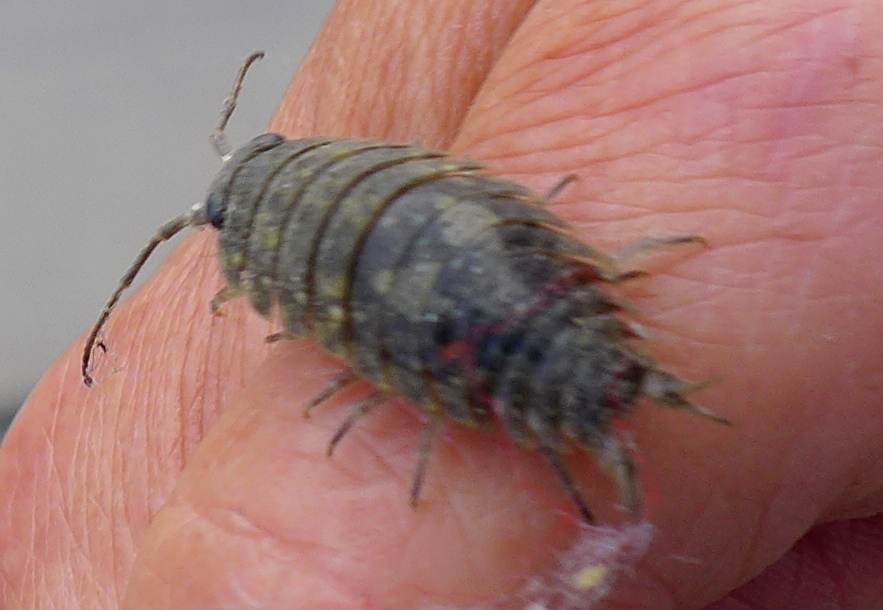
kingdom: Animalia
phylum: Arthropoda
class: Malacostraca
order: Isopoda
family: Ligiidae
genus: Ligia
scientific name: Ligia pallasii
